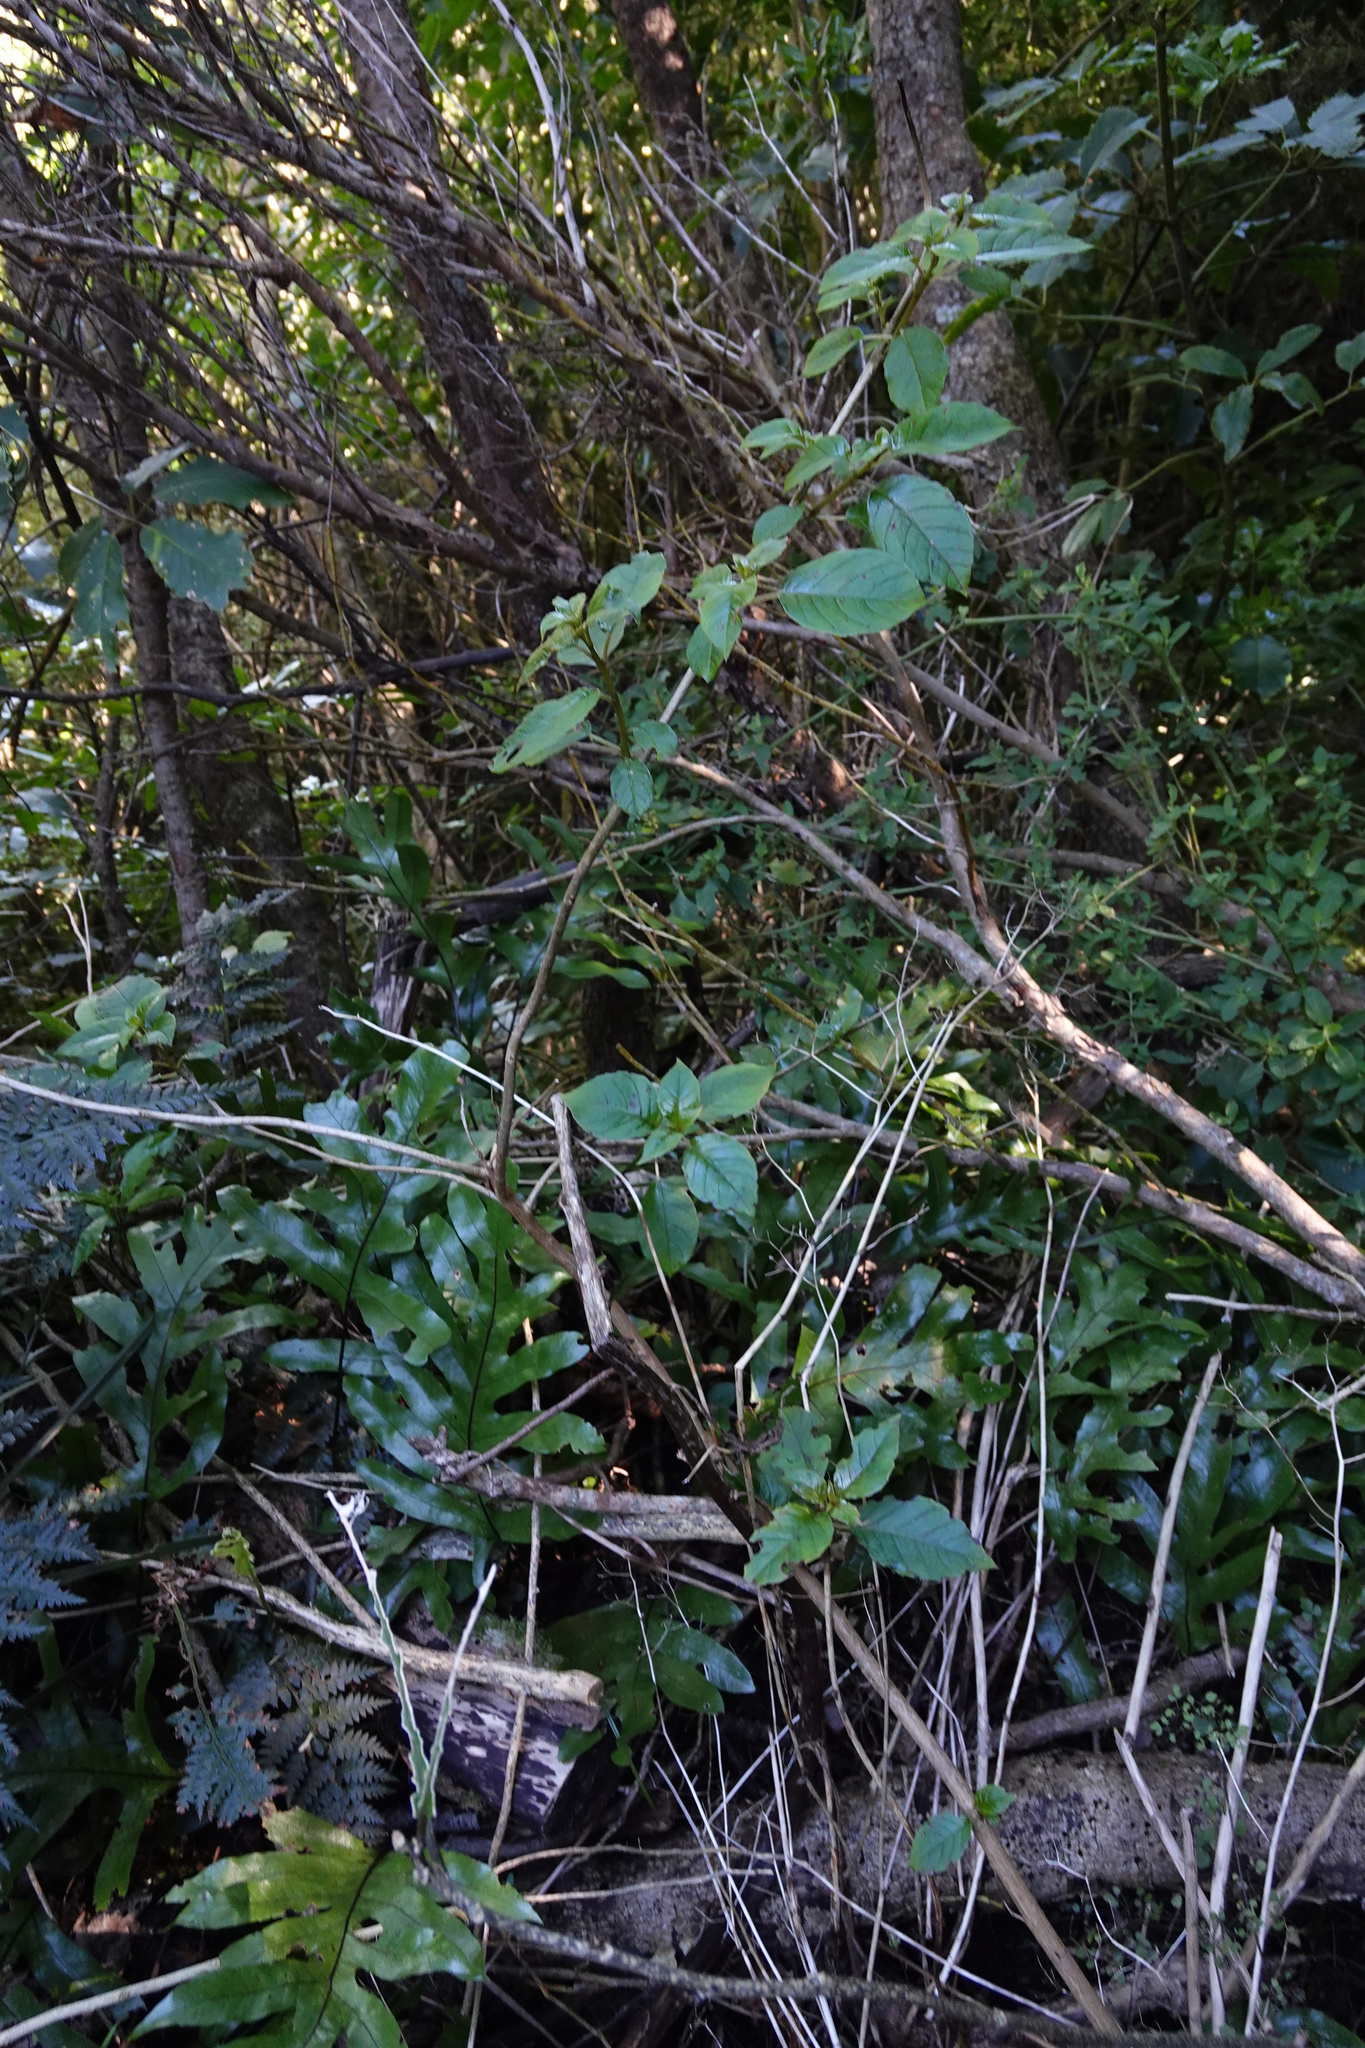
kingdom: Plantae
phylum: Tracheophyta
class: Magnoliopsida
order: Myrtales
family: Onagraceae
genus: Fuchsia
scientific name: Fuchsia excorticata
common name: Tree fuchsia
